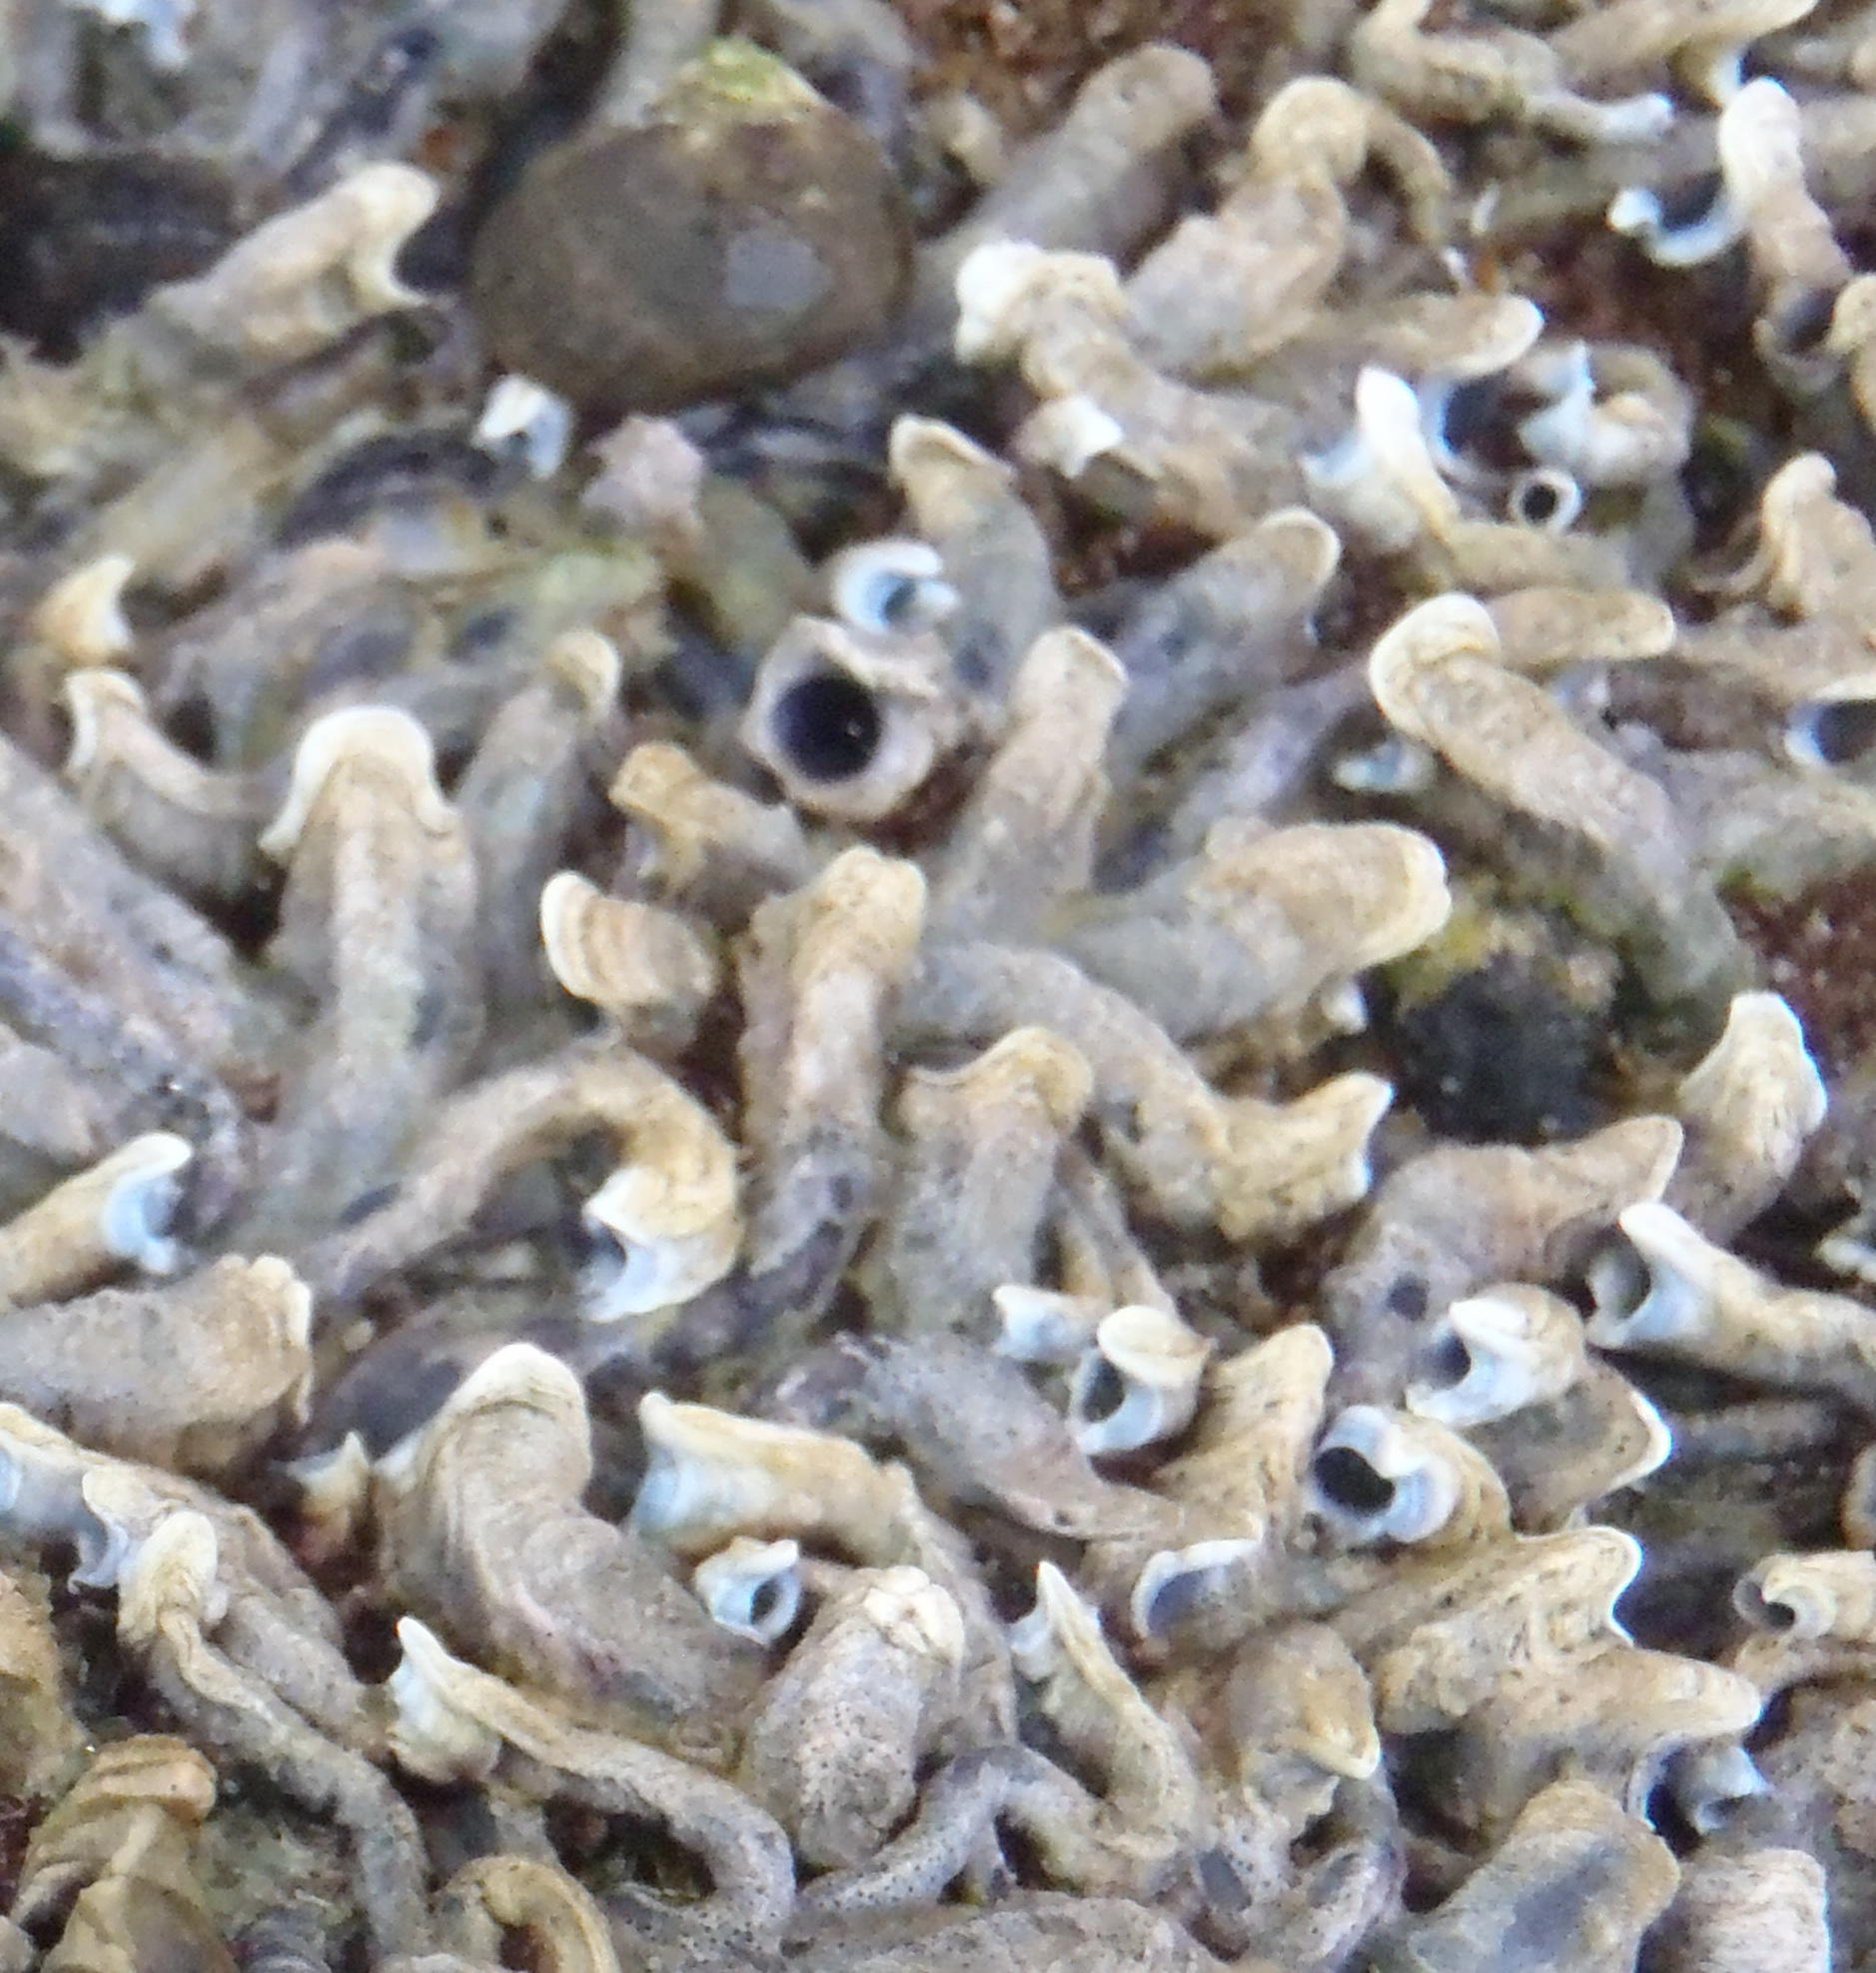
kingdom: Animalia
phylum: Annelida
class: Polychaeta
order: Sabellida
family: Serpulidae
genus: Spirobranchus
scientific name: Spirobranchus kraussii
